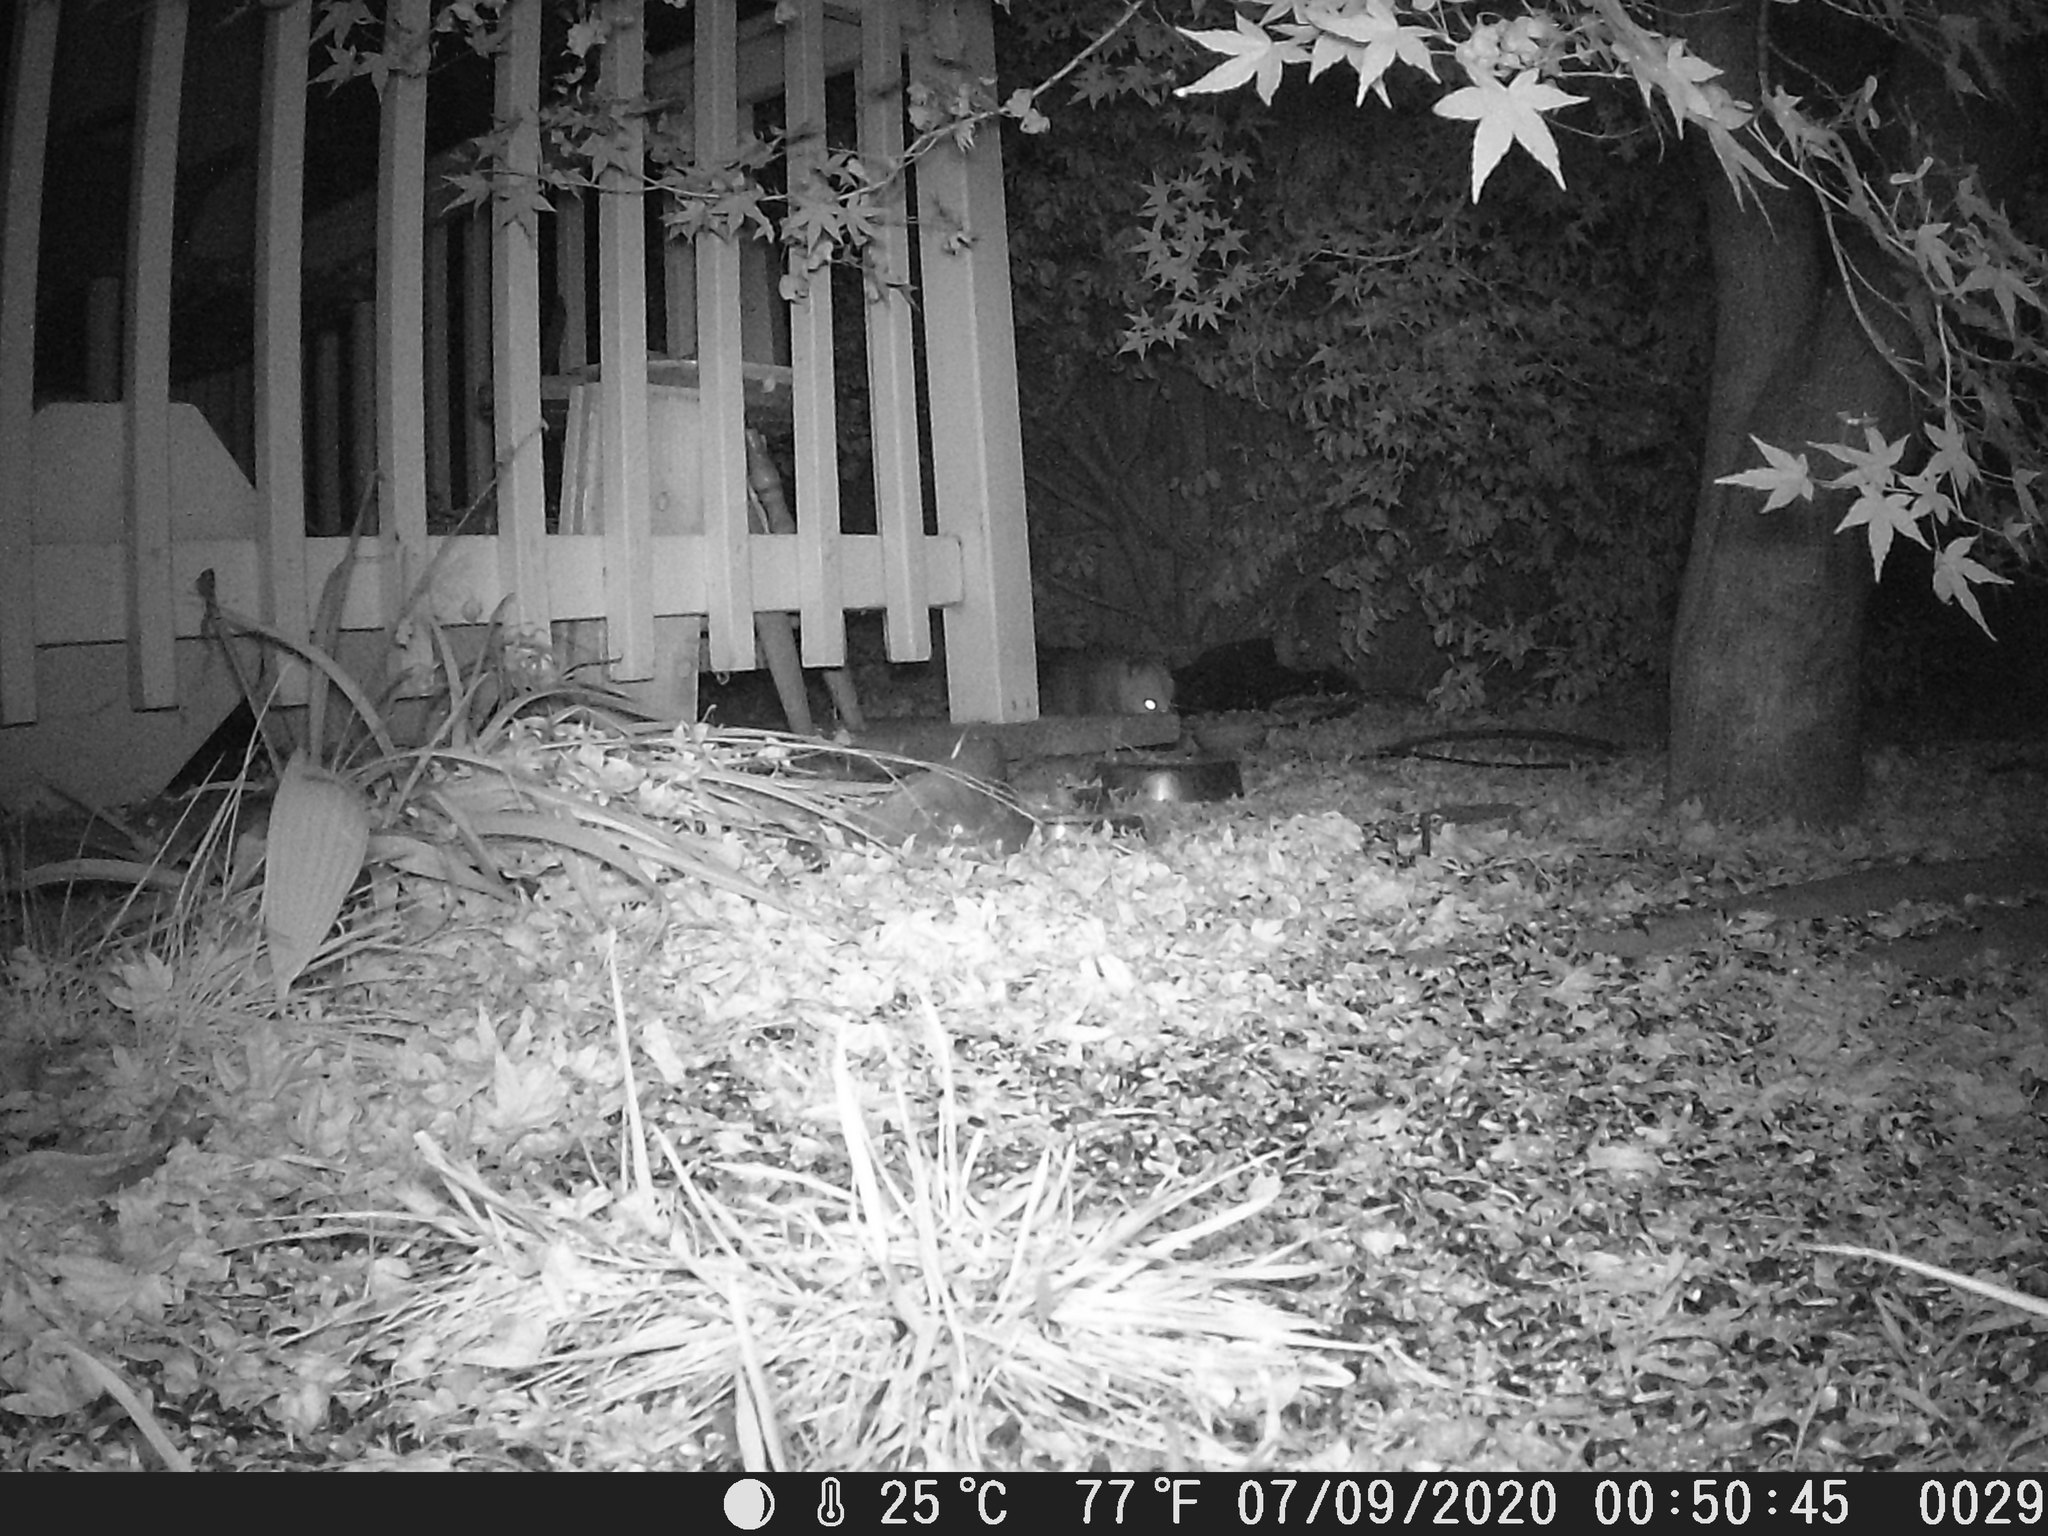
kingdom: Animalia
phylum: Chordata
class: Mammalia
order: Didelphimorphia
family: Didelphidae
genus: Didelphis
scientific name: Didelphis virginiana
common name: Virginia opossum
